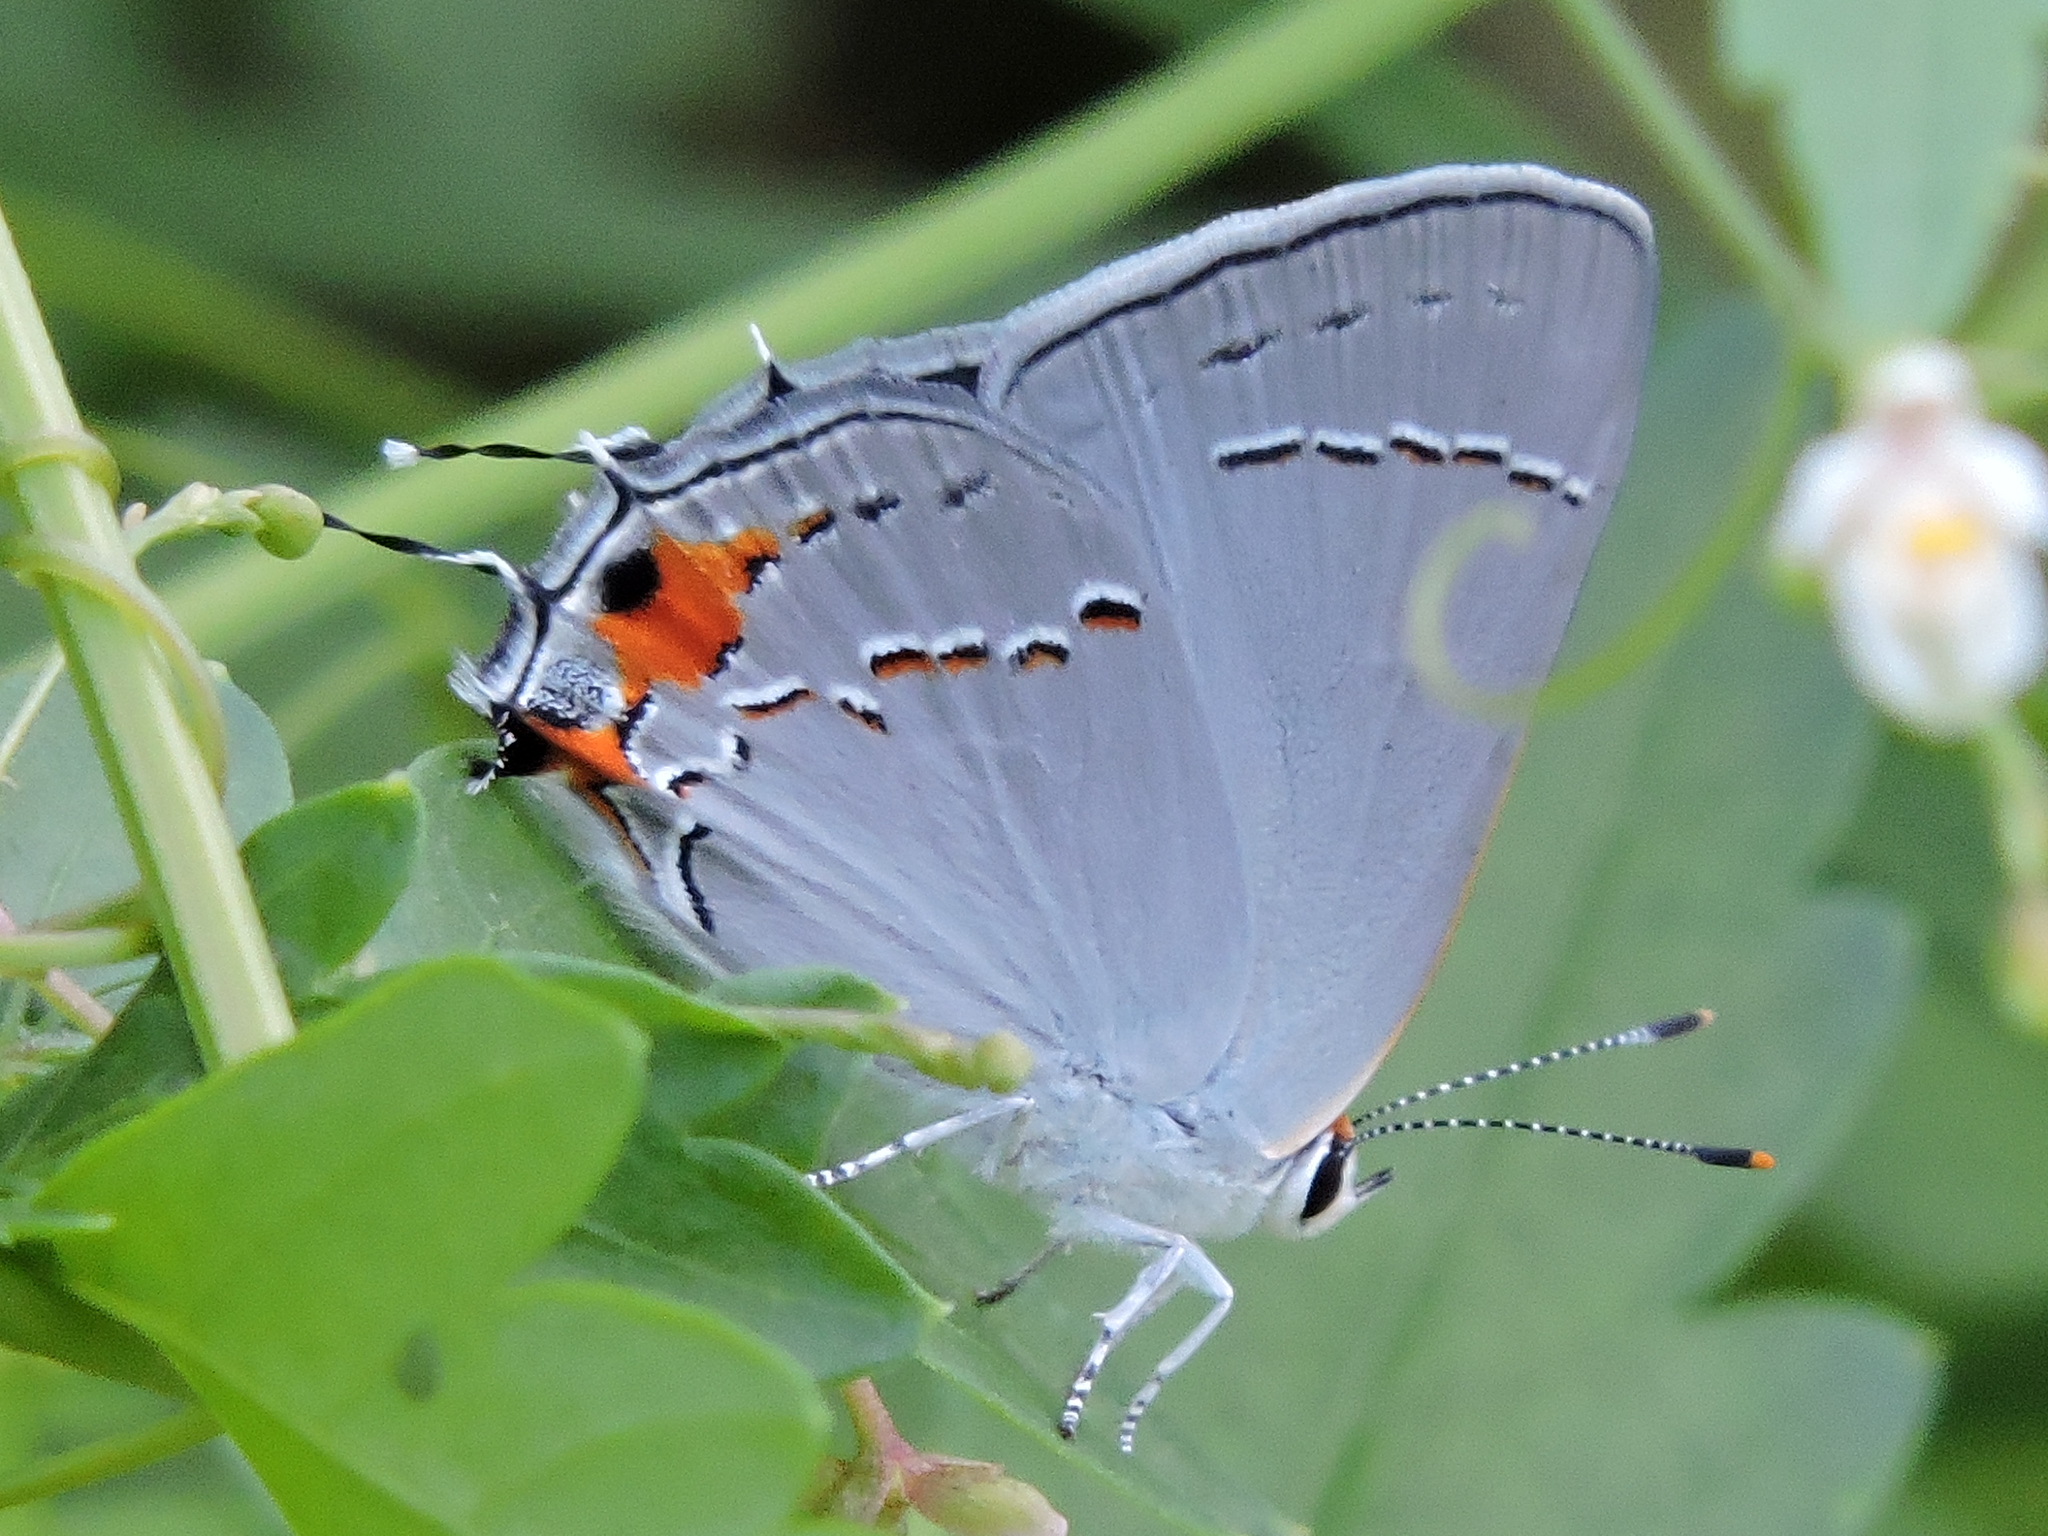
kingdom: Animalia
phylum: Arthropoda
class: Insecta
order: Lepidoptera
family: Lycaenidae
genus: Strymon
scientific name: Strymon melinus
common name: Gray hairstreak
